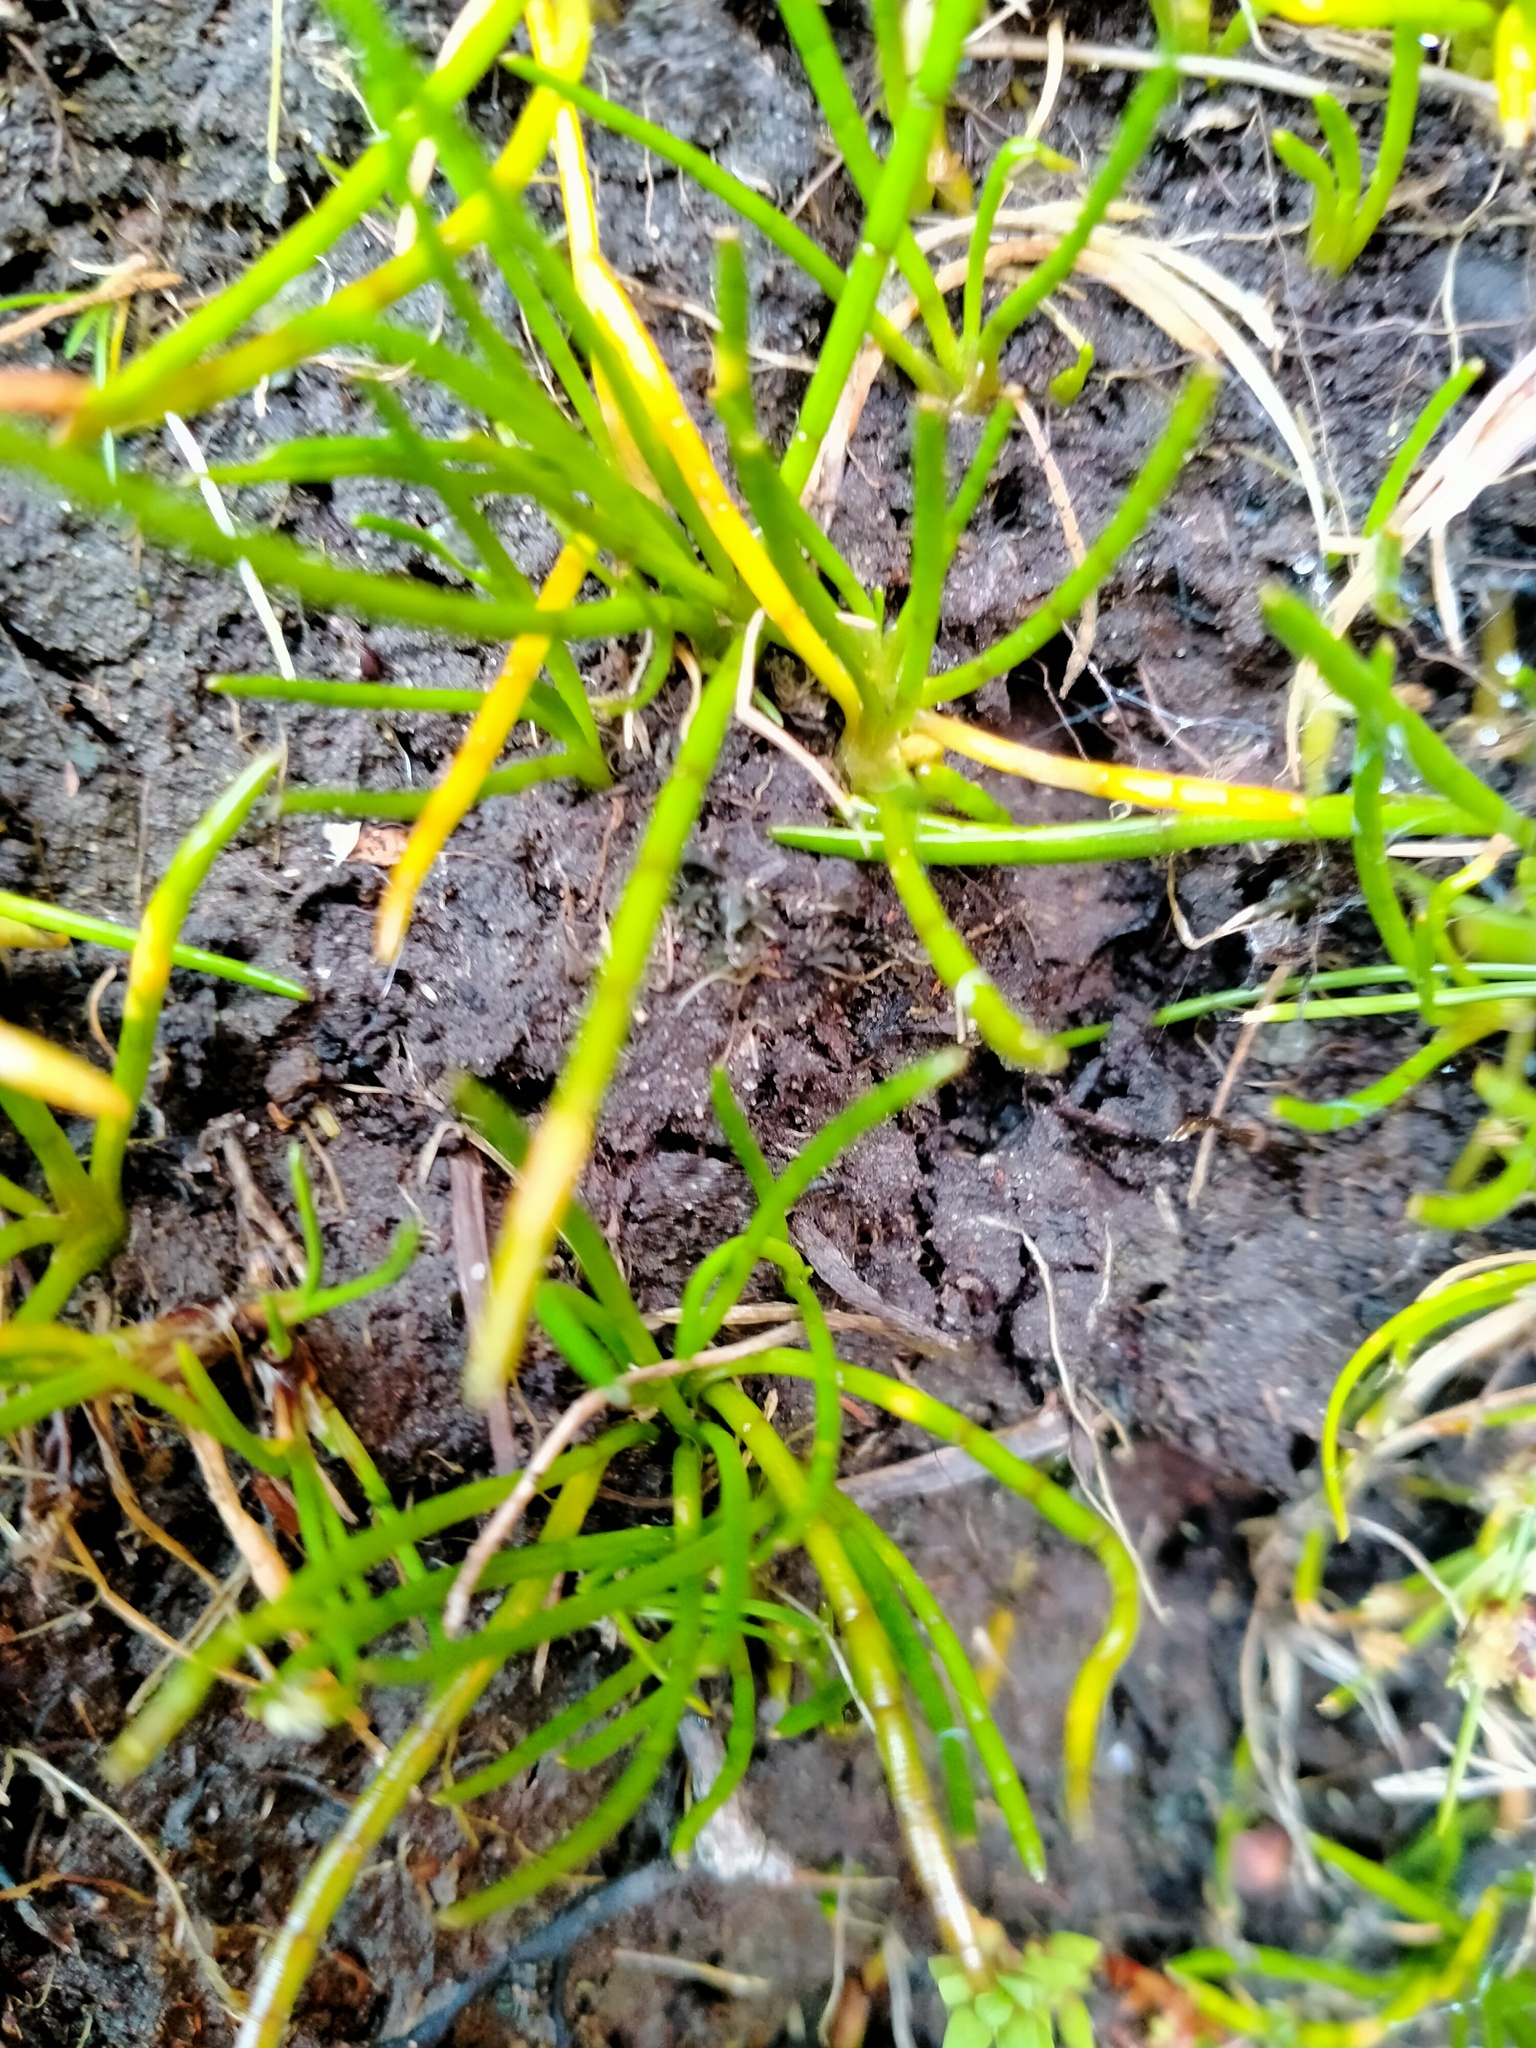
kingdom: Plantae
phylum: Tracheophyta
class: Magnoliopsida
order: Apiales
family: Apiaceae
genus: Lilaeopsis
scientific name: Lilaeopsis novae-zelandiae
